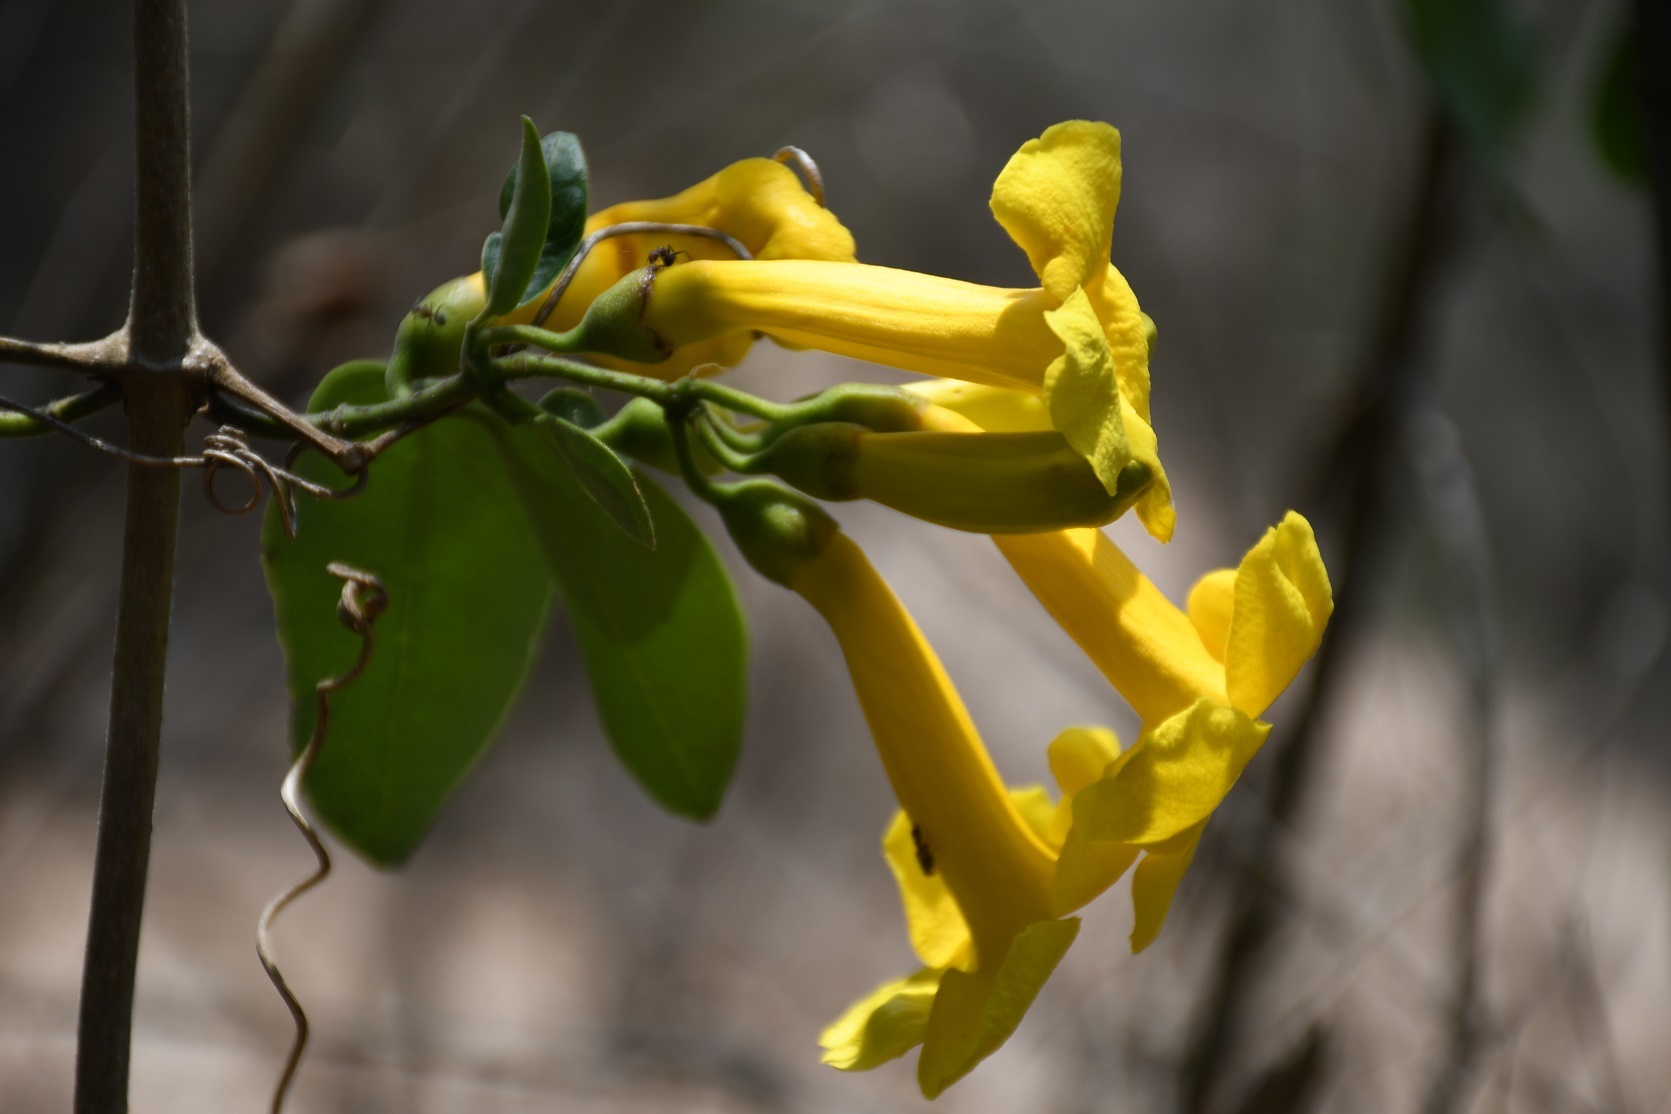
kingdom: Plantae
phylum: Tracheophyta
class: Magnoliopsida
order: Lamiales
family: Bignoniaceae
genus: Anemopaegma
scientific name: Anemopaegma chrysanthum
